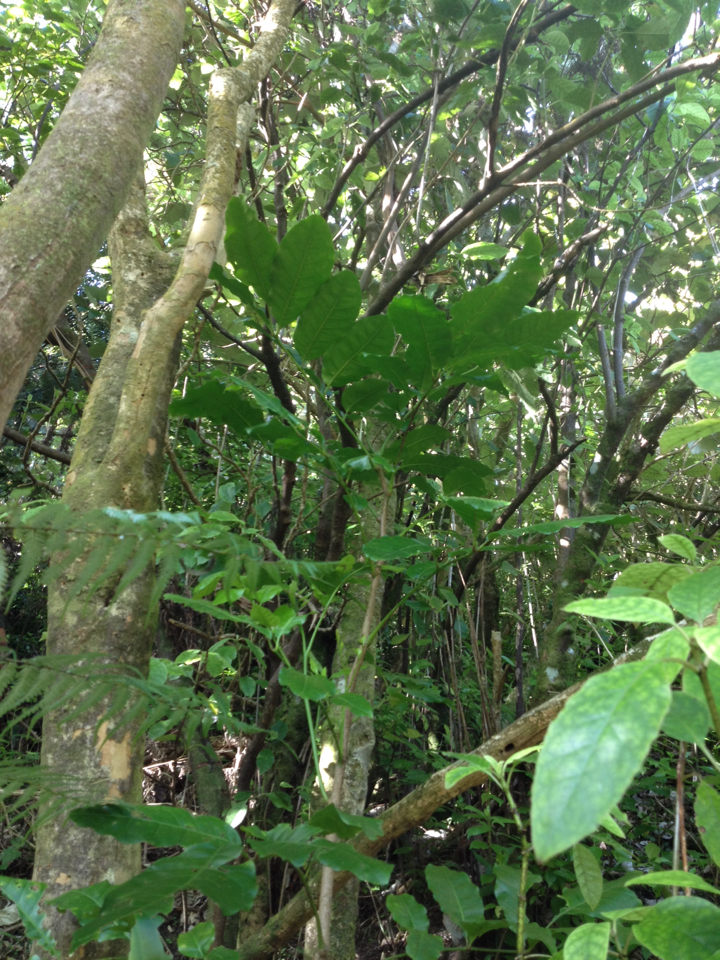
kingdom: Plantae
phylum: Tracheophyta
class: Magnoliopsida
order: Sapindales
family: Meliaceae
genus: Didymocheton
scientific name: Didymocheton spectabilis
